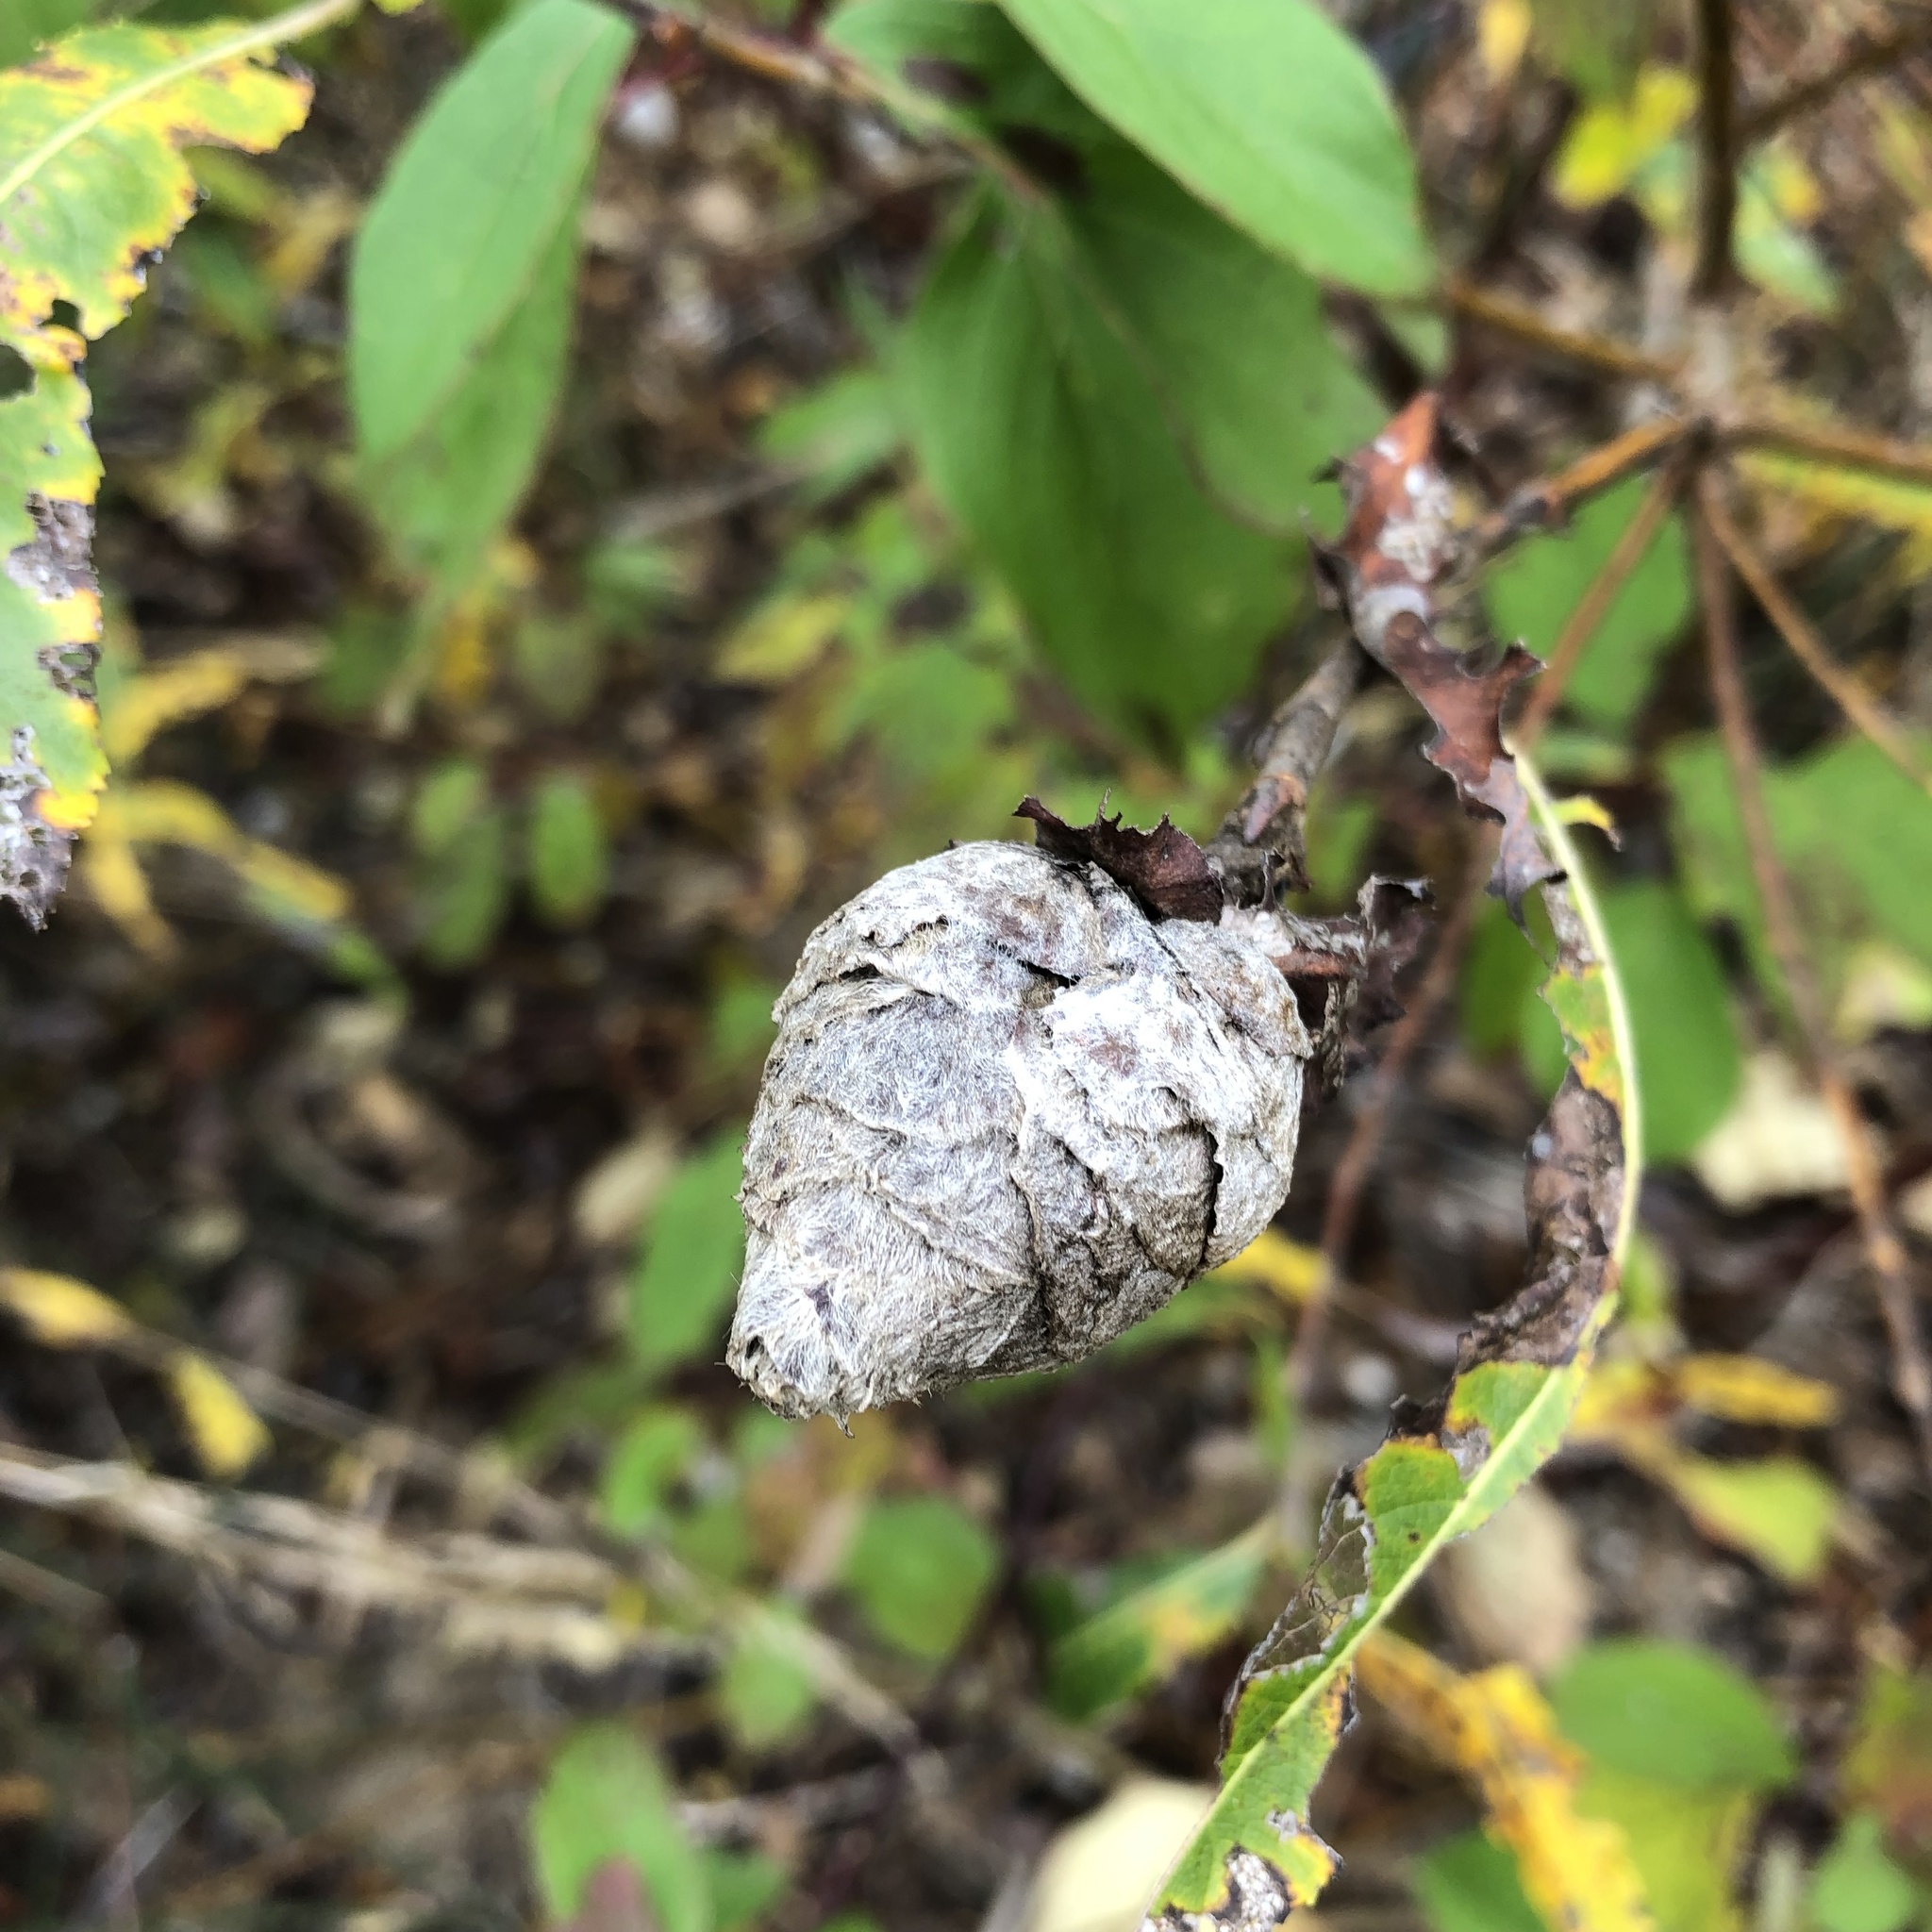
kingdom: Animalia
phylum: Arthropoda
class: Insecta
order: Diptera
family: Cecidomyiidae
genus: Rabdophaga
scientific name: Rabdophaga strobiloides
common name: Willow pinecone gall midge
